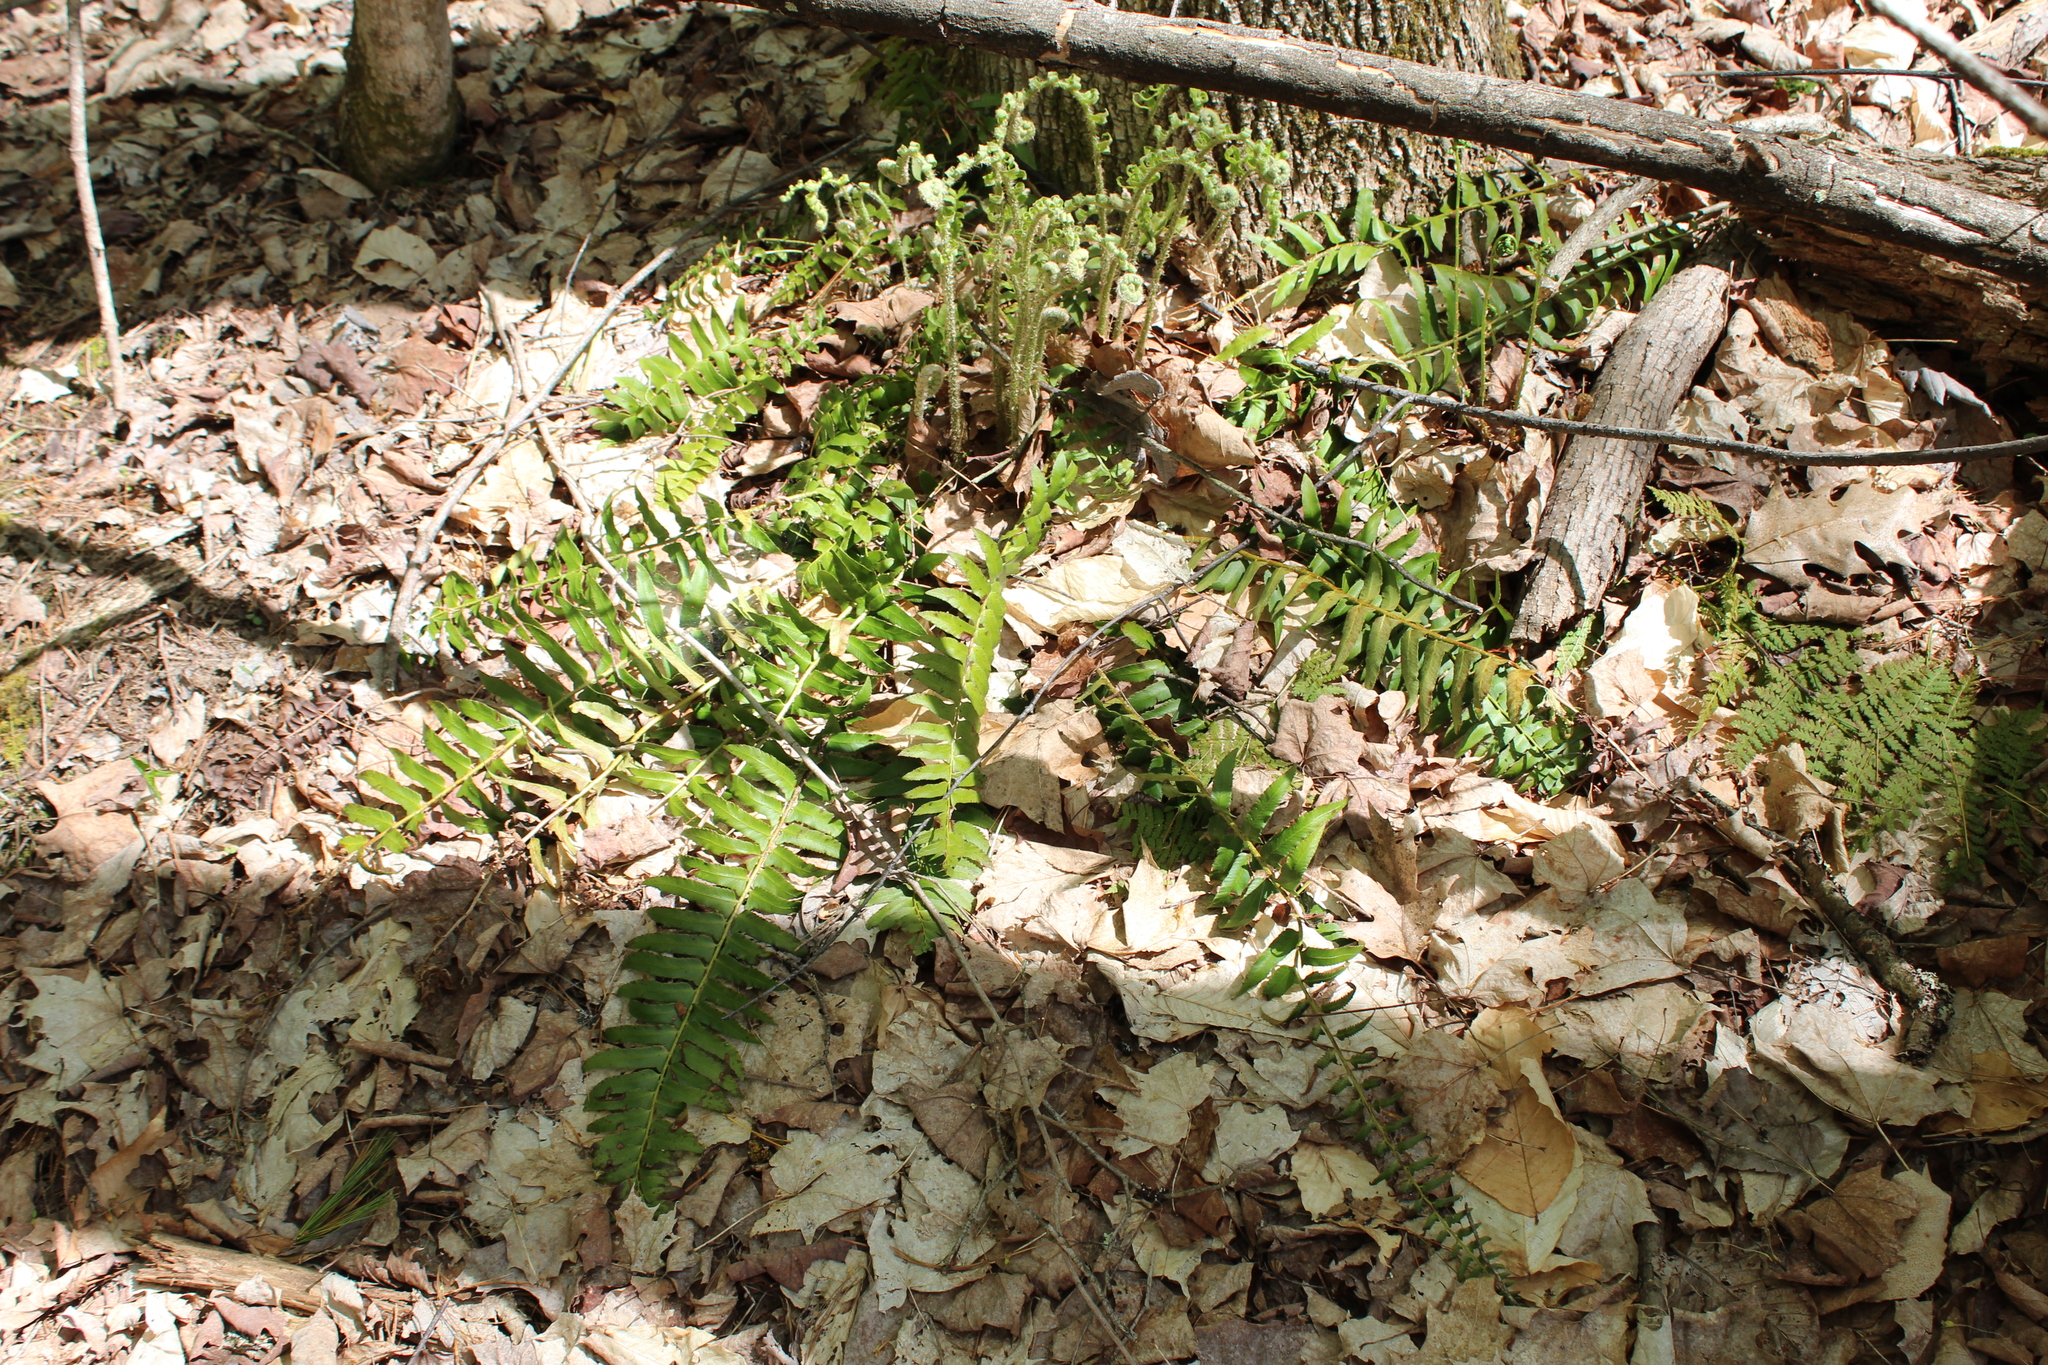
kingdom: Plantae
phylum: Tracheophyta
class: Polypodiopsida
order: Polypodiales
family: Dryopteridaceae
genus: Polystichum
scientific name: Polystichum acrostichoides
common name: Christmas fern
